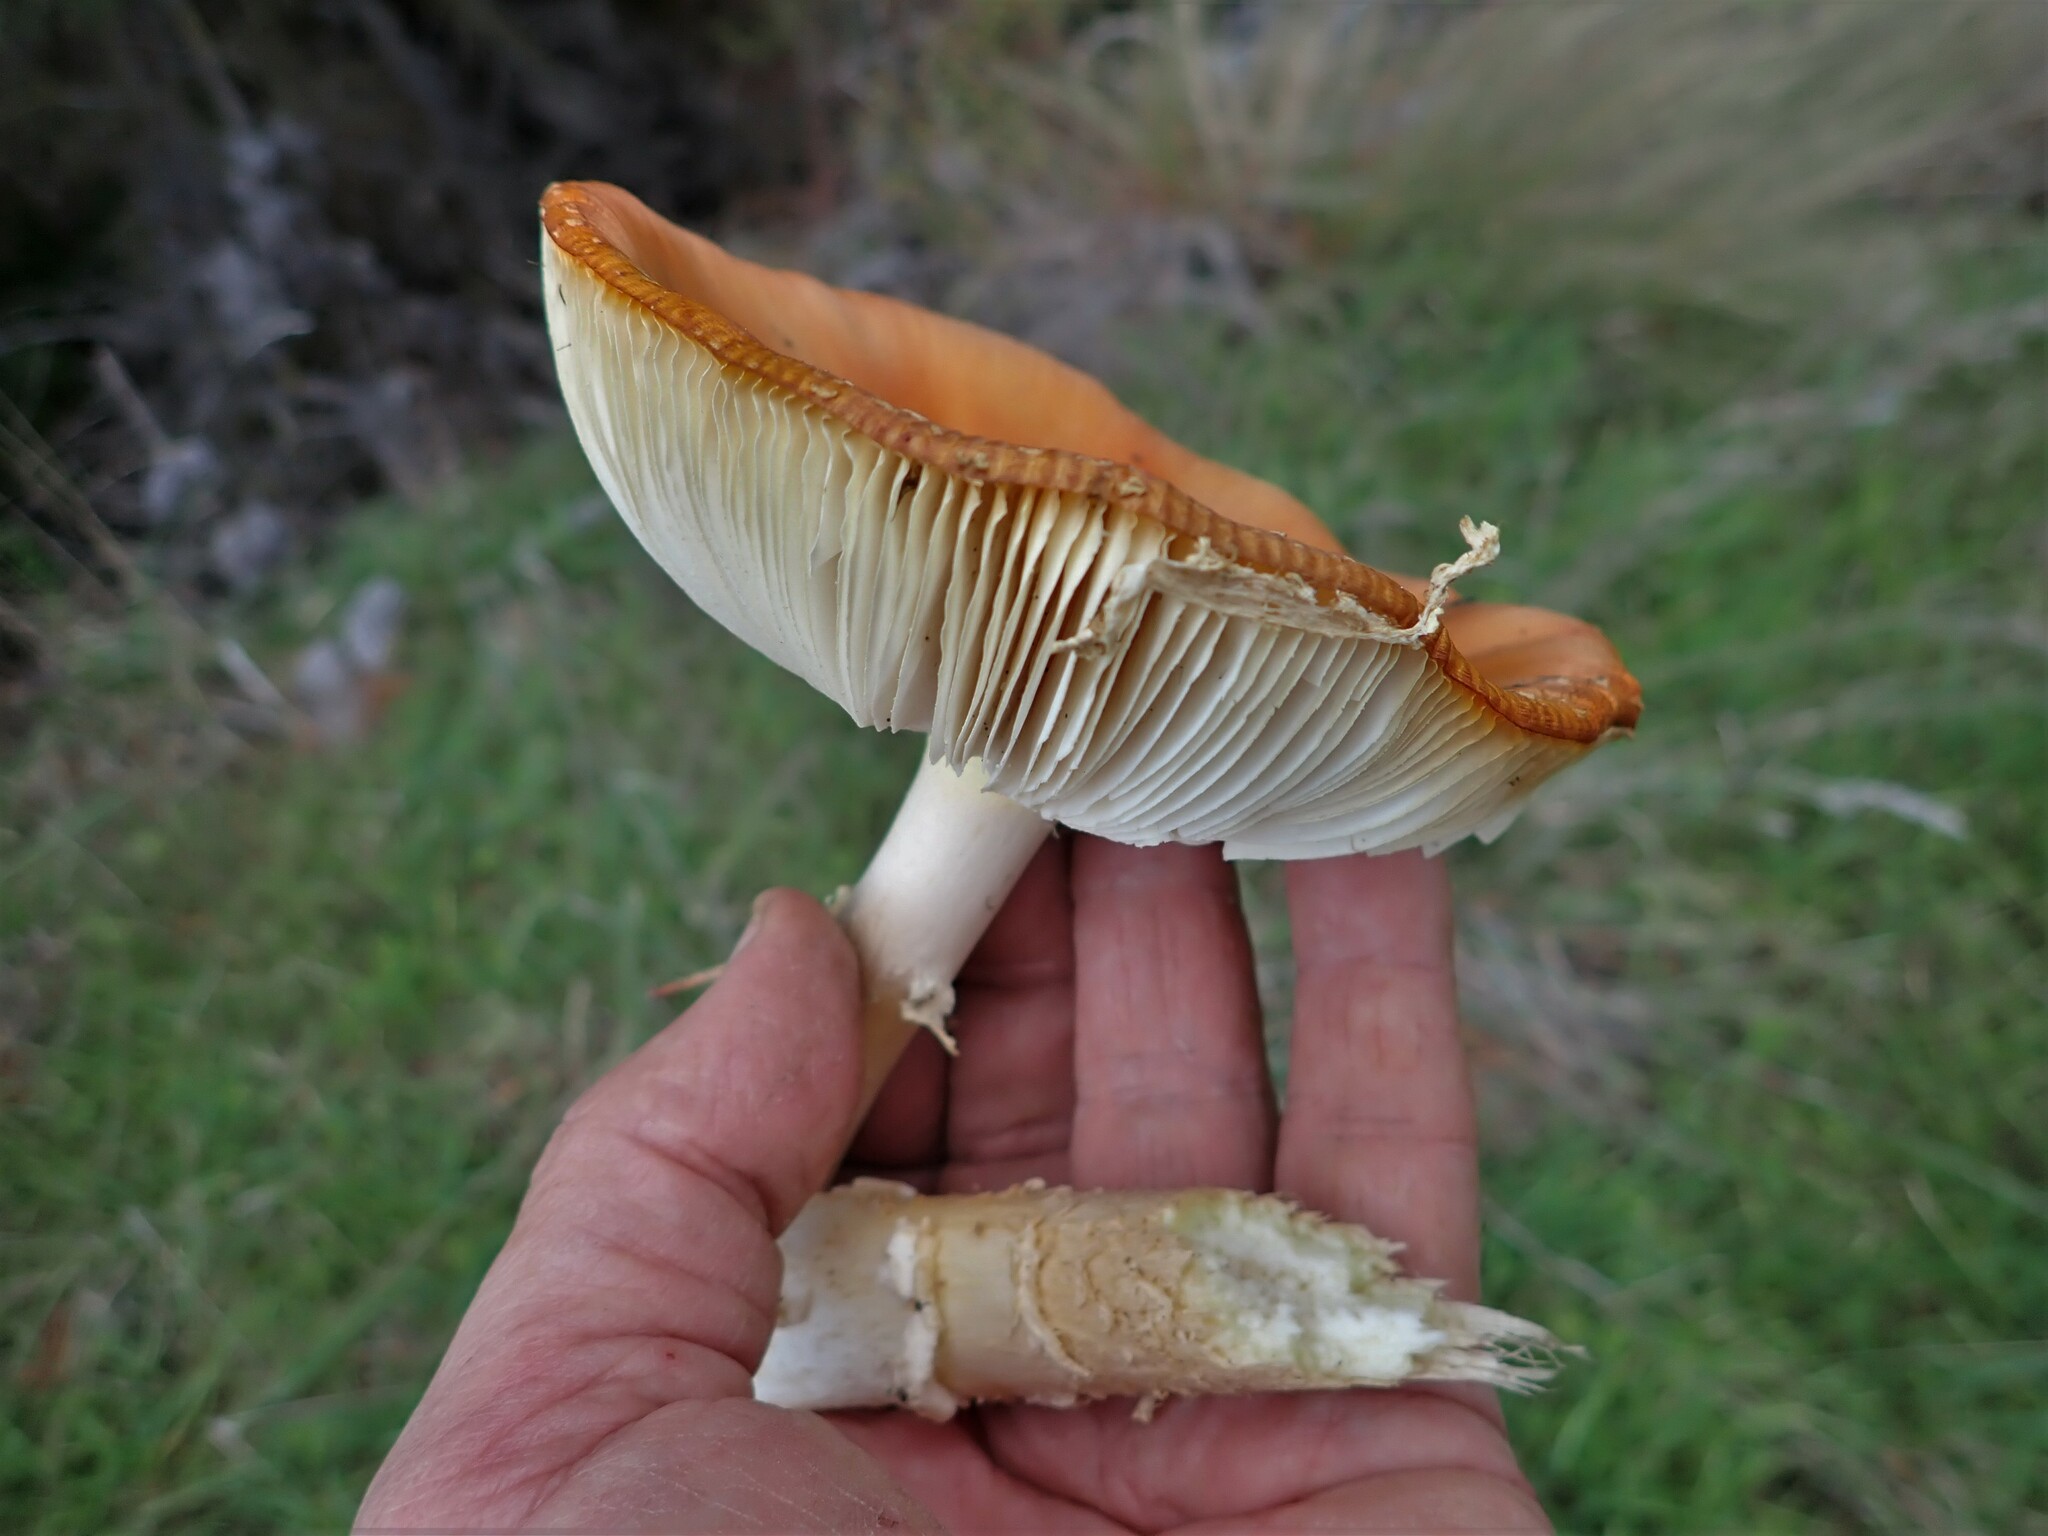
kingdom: Fungi
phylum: Basidiomycota
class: Agaricomycetes
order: Agaricales
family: Amanitaceae
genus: Amanita
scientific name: Amanita muscaria
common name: Fly agaric
